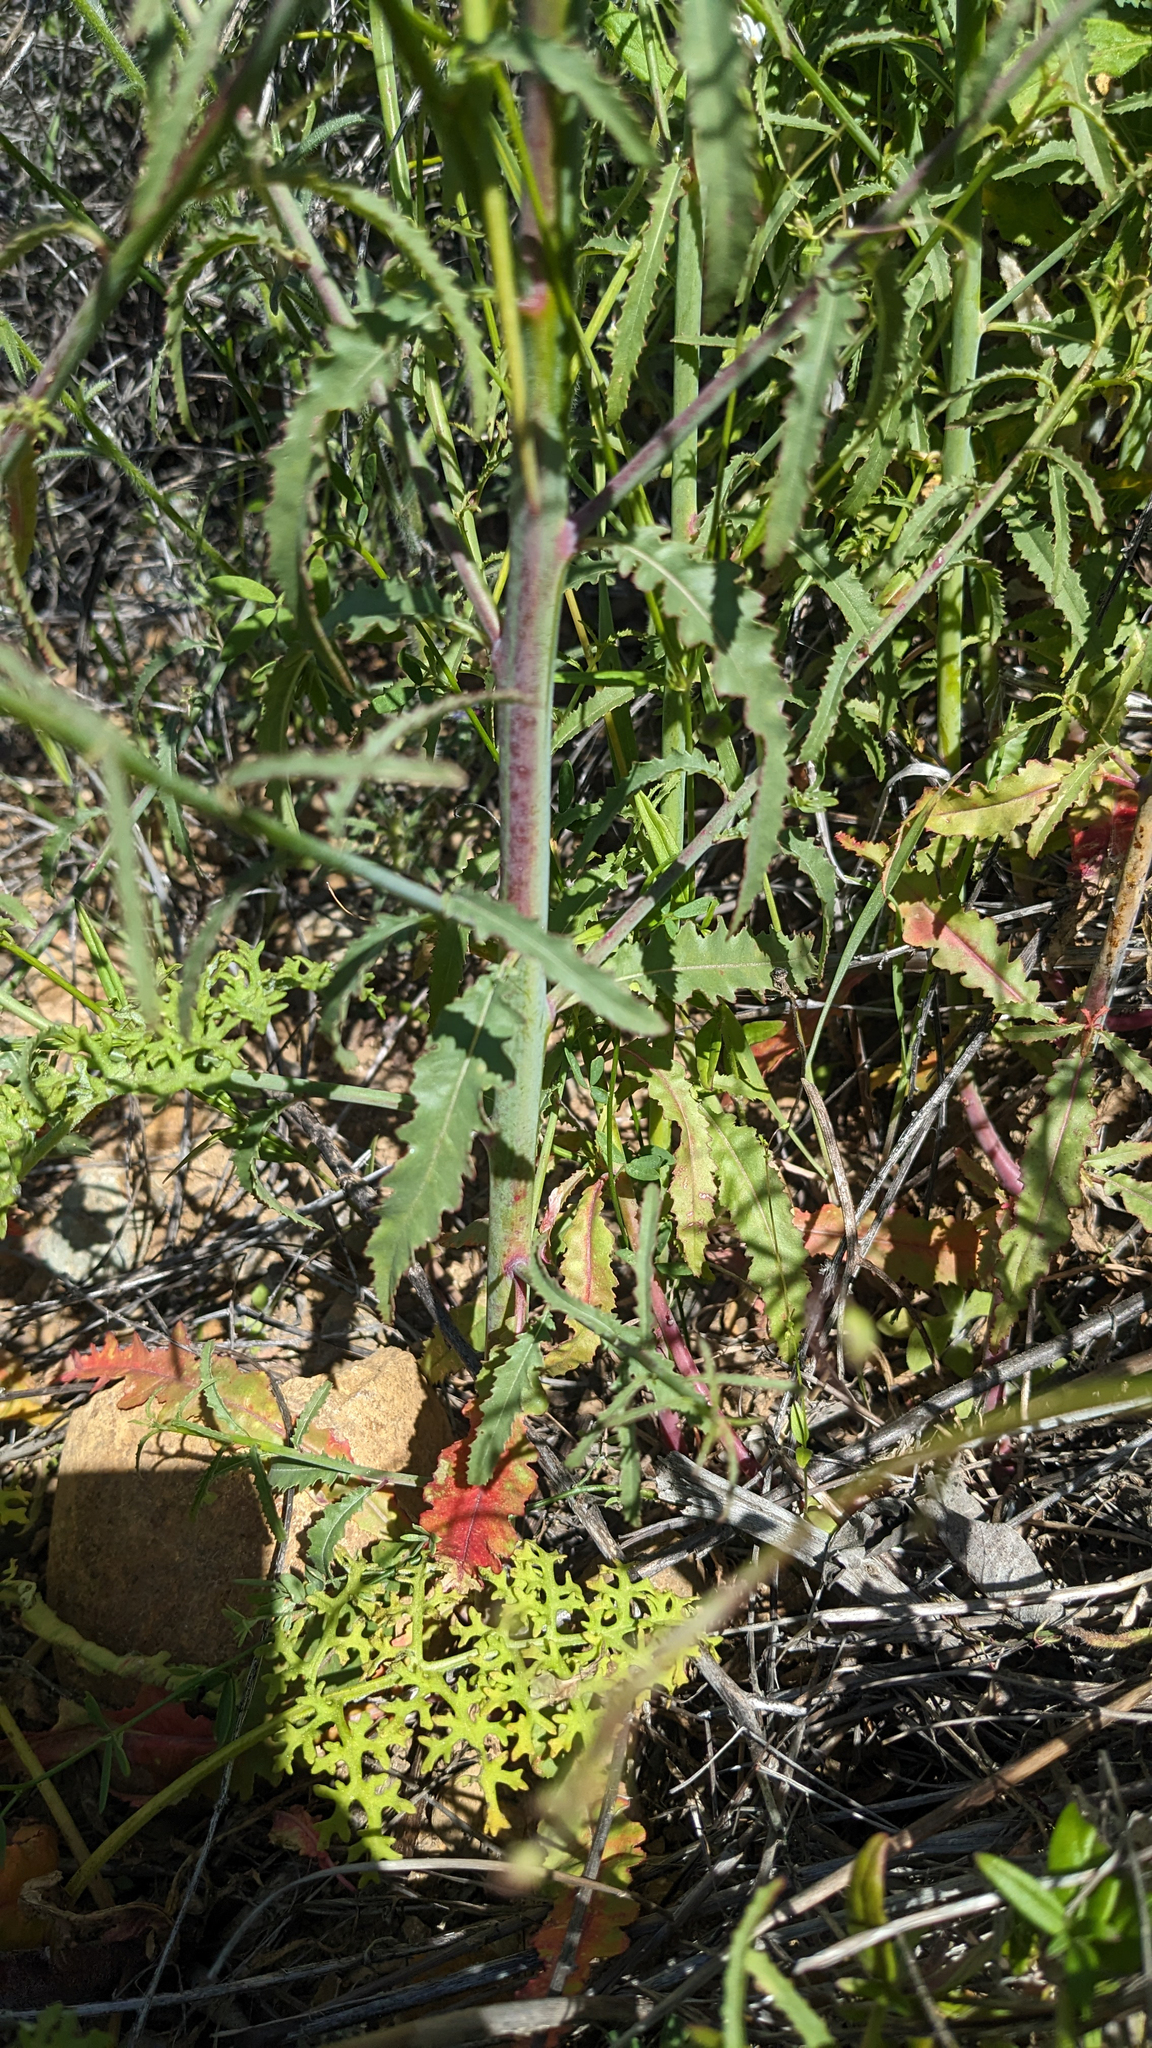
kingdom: Plantae
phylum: Tracheophyta
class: Magnoliopsida
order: Myrtales
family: Onagraceae
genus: Eulobus
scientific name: Eulobus californicus
